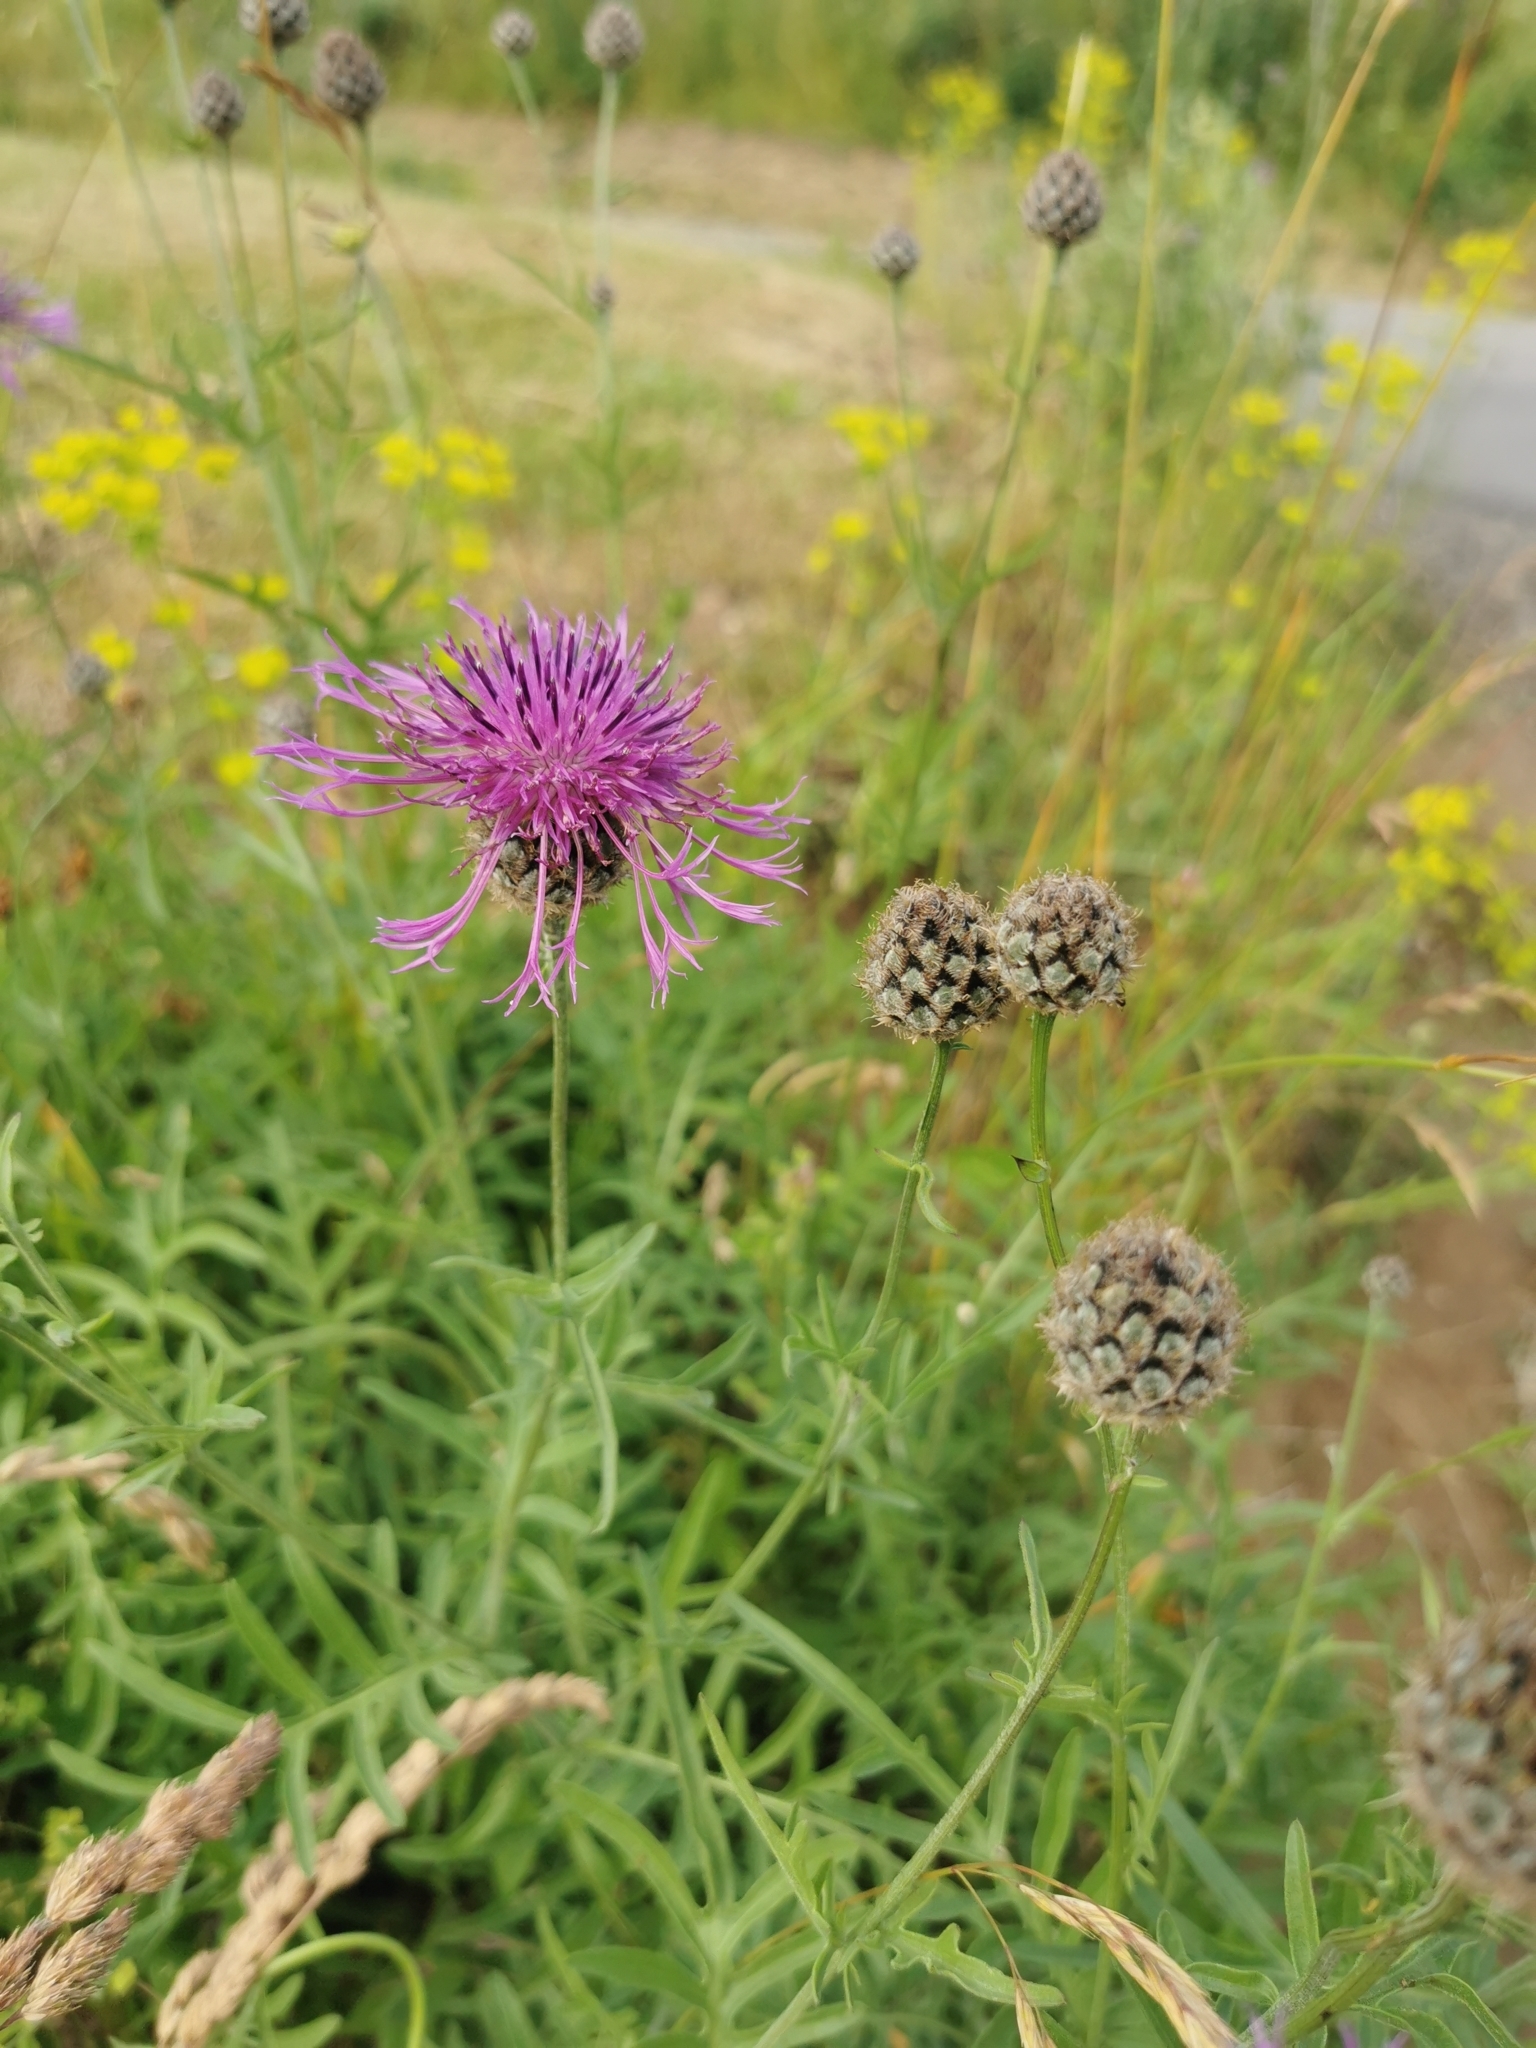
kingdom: Plantae
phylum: Tracheophyta
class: Magnoliopsida
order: Asterales
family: Asteraceae
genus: Centaurea
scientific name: Centaurea scabiosa
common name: Greater knapweed
